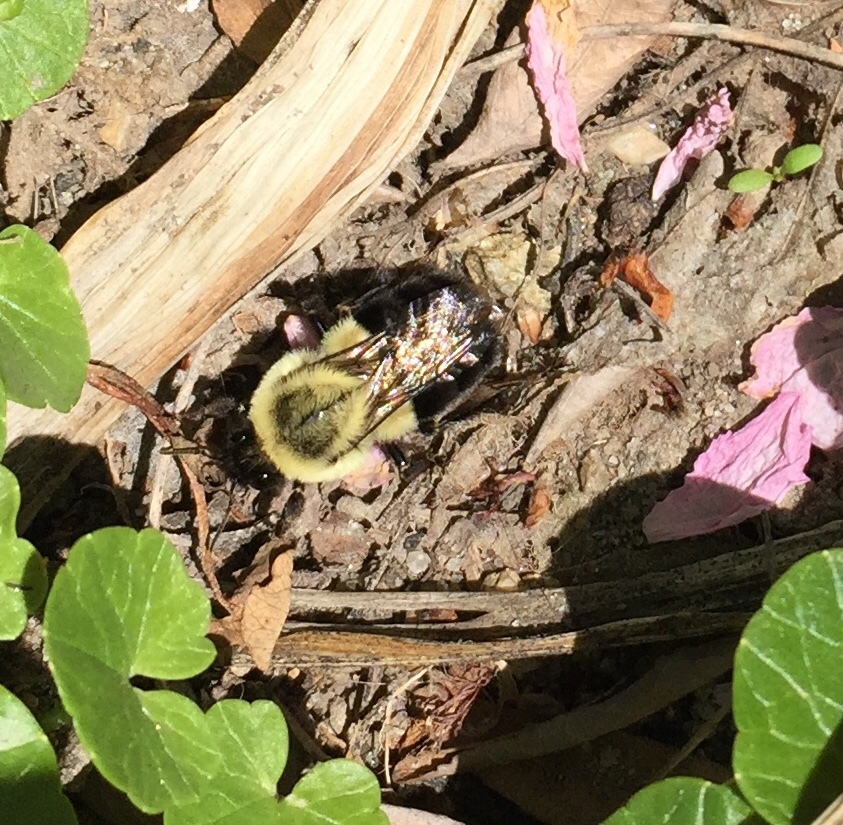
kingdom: Animalia
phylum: Arthropoda
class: Insecta
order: Hymenoptera
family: Apidae
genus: Bombus
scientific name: Bombus impatiens
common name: Common eastern bumble bee
